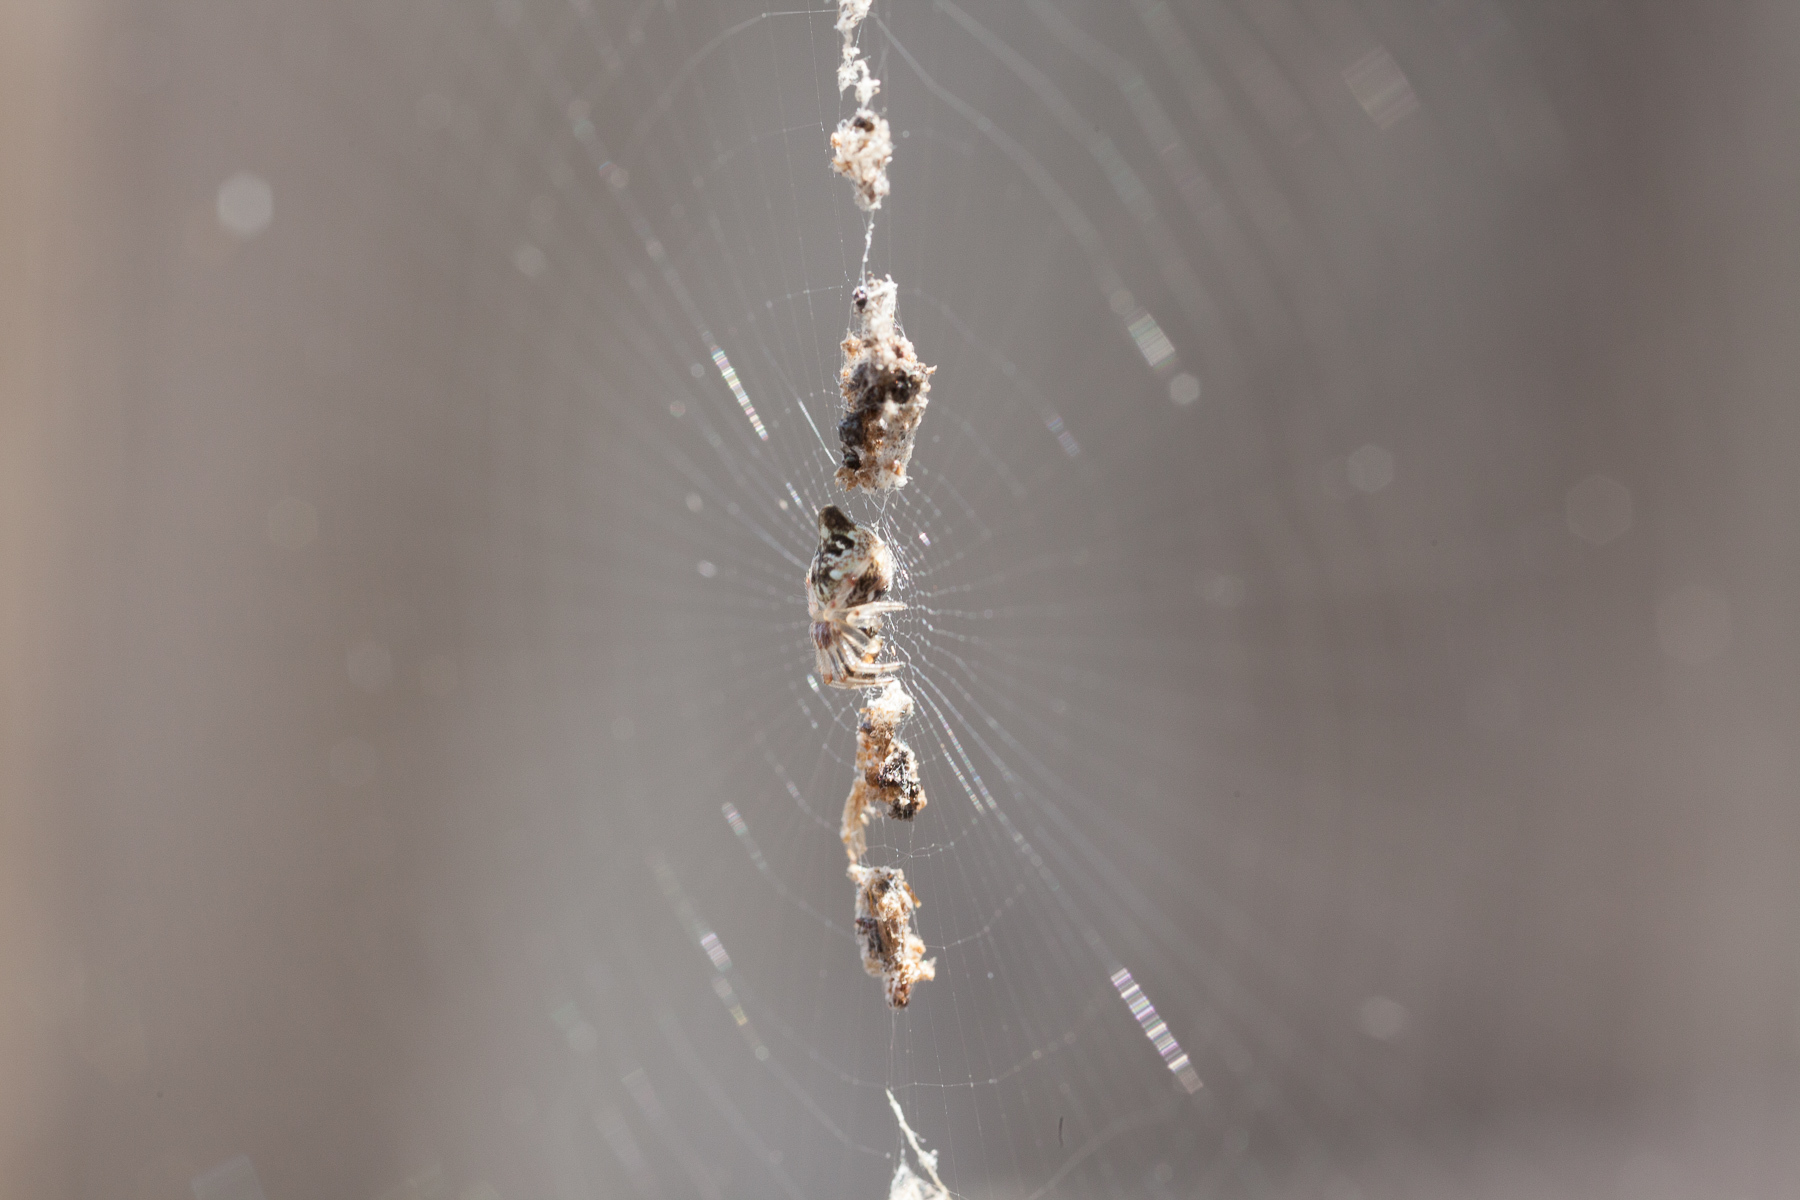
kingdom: Animalia
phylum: Arthropoda
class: Arachnida
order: Araneae
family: Araneidae
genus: Cyclosa
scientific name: Cyclosa turbinata
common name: Orb weavers
